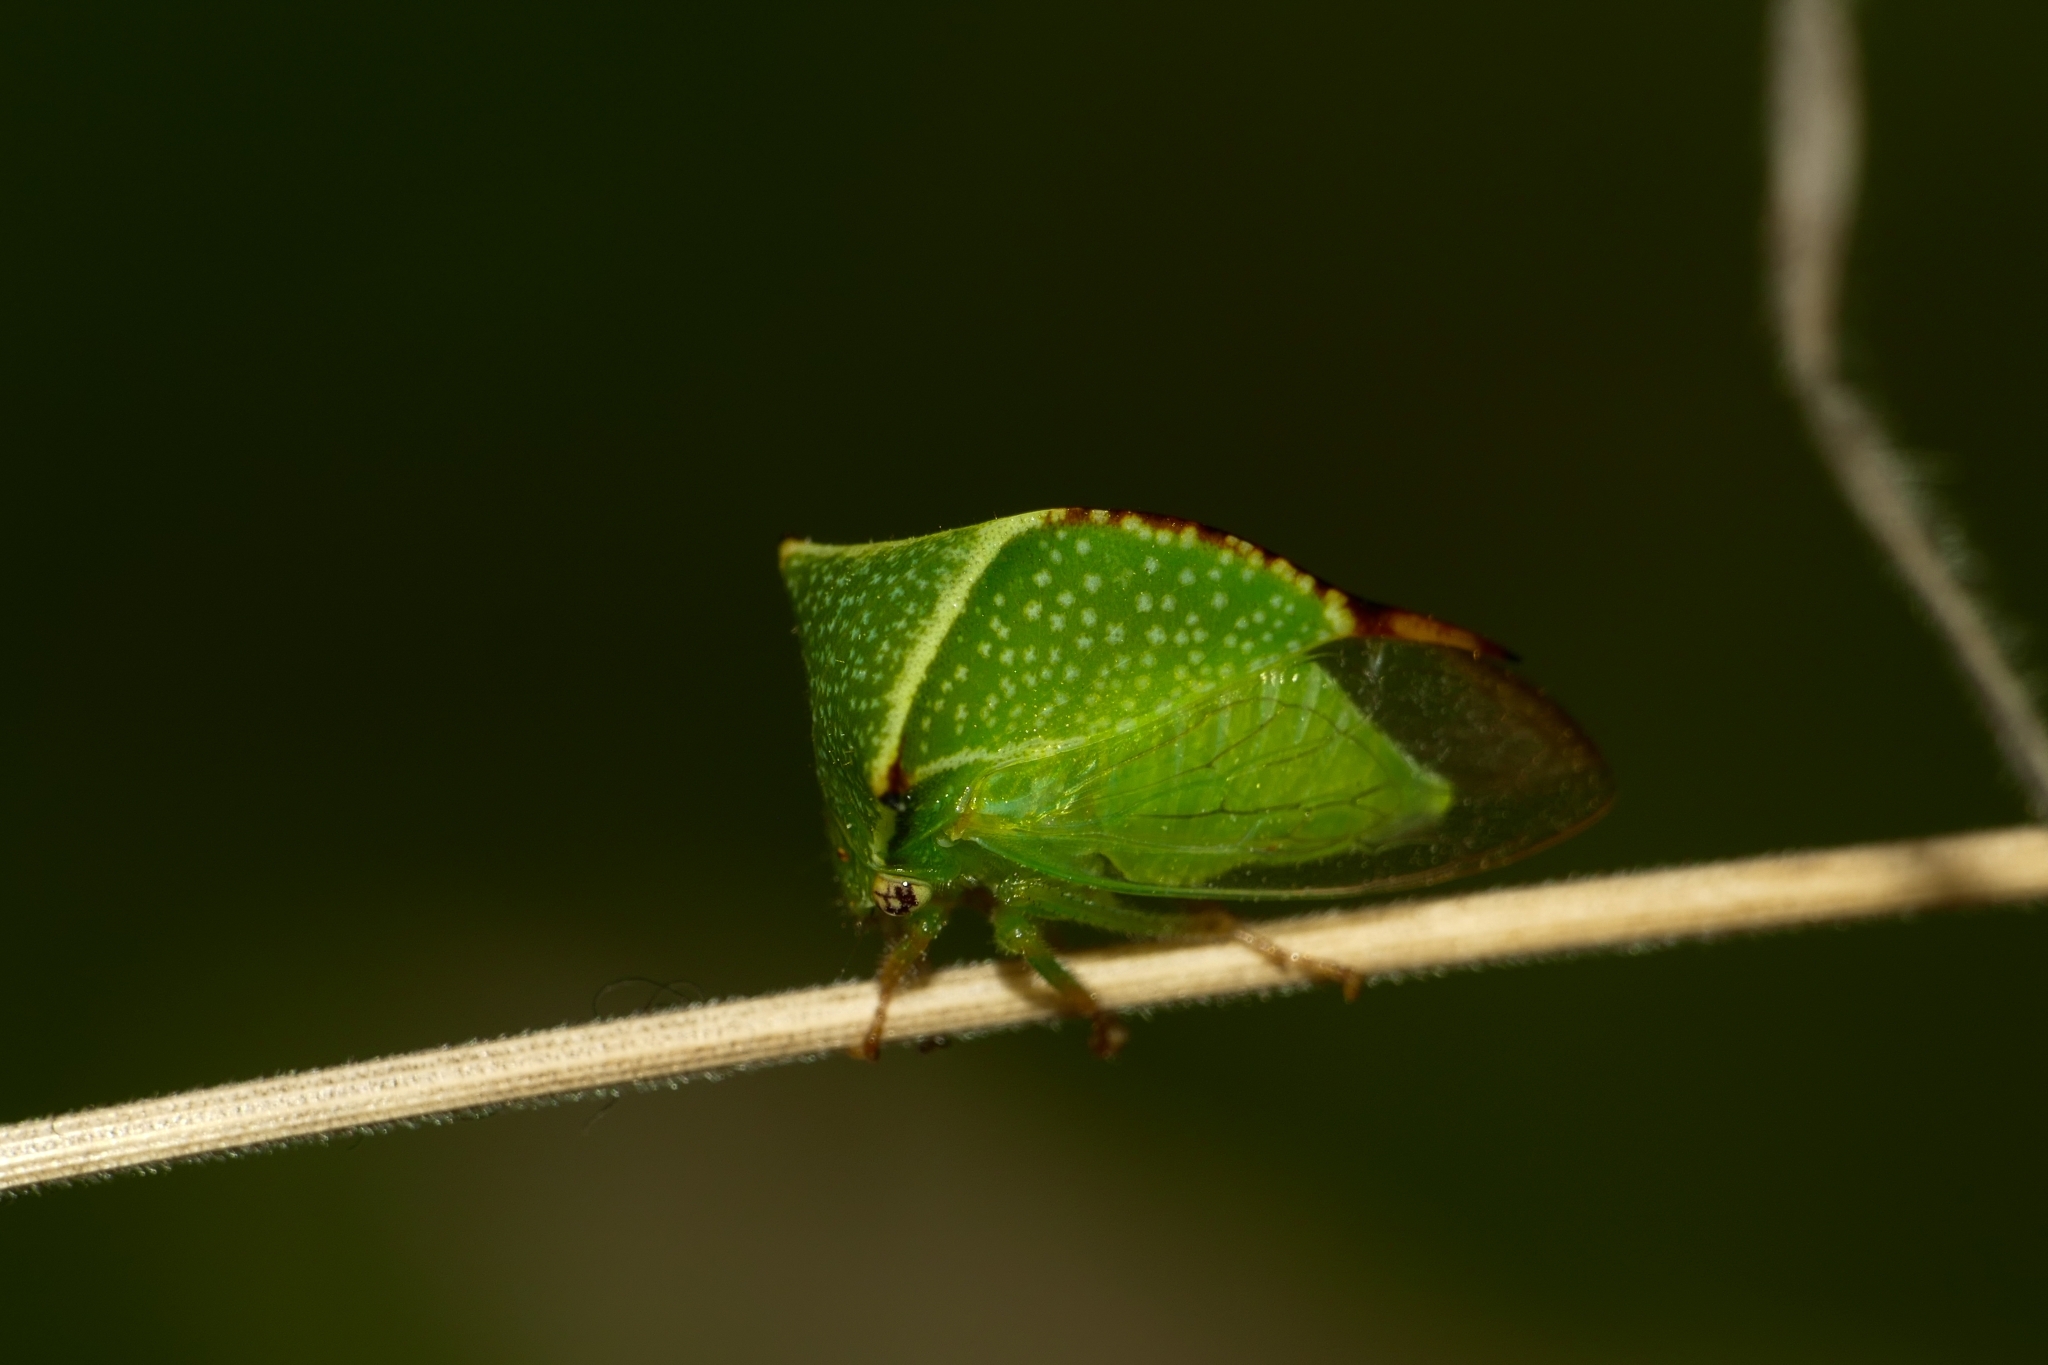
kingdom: Animalia
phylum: Arthropoda
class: Insecta
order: Hemiptera
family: Membracidae
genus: Stictocephala
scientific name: Stictocephala bisonia
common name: American buffalo treehopper
